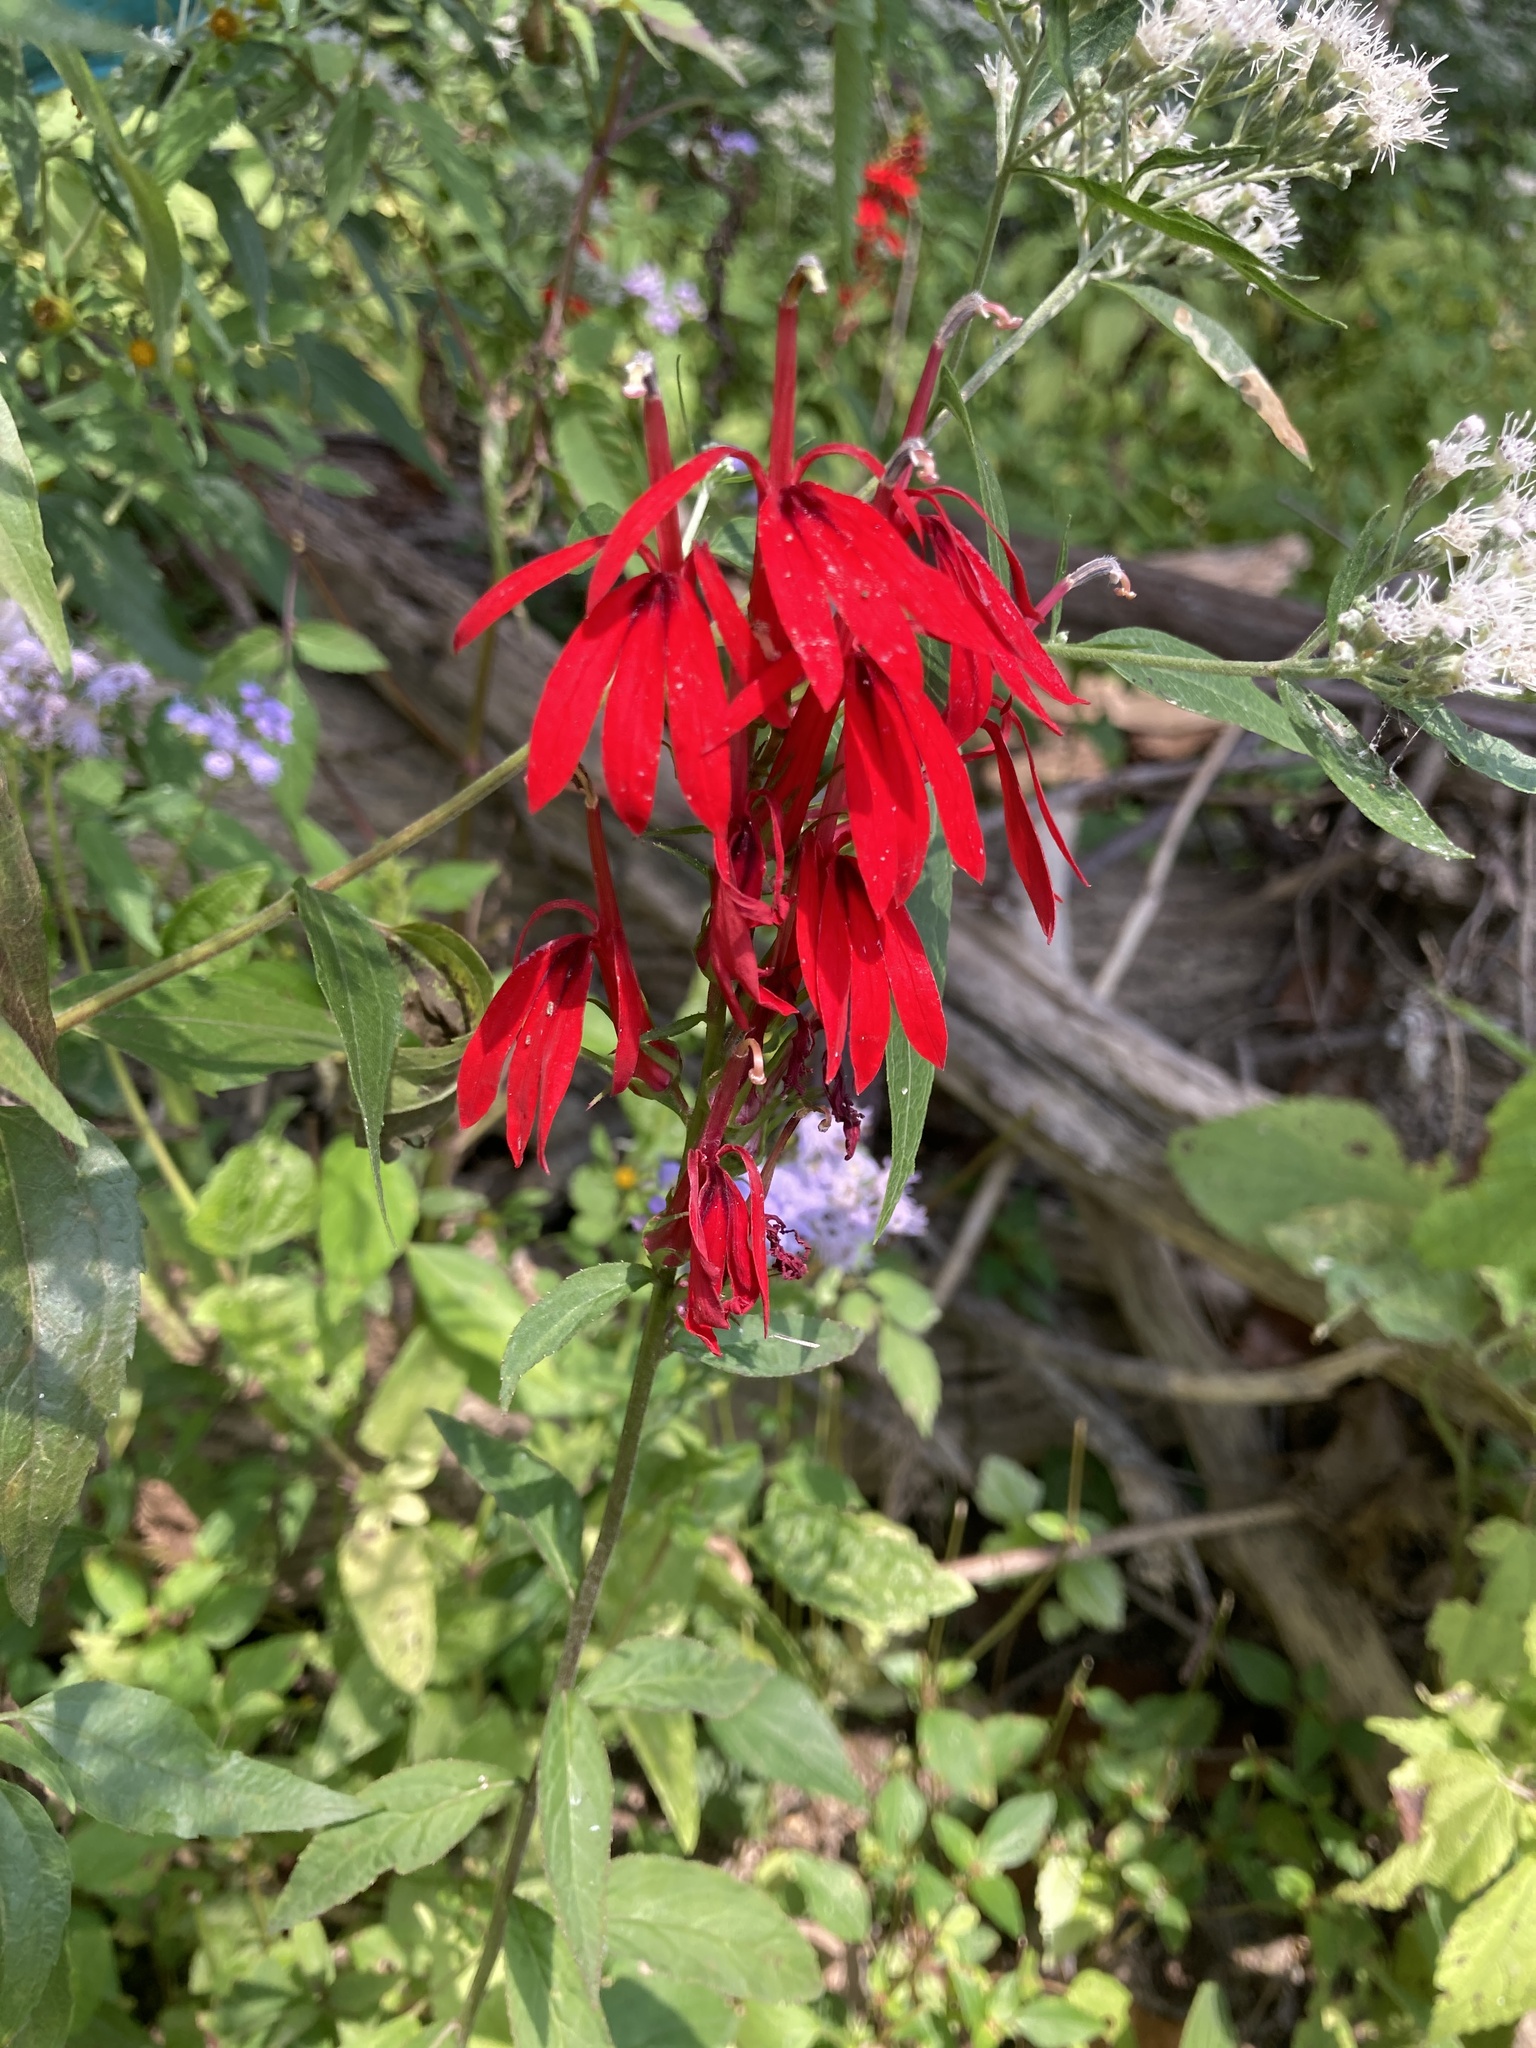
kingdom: Plantae
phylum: Tracheophyta
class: Magnoliopsida
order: Asterales
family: Campanulaceae
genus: Lobelia
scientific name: Lobelia cardinalis
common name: Cardinal flower
